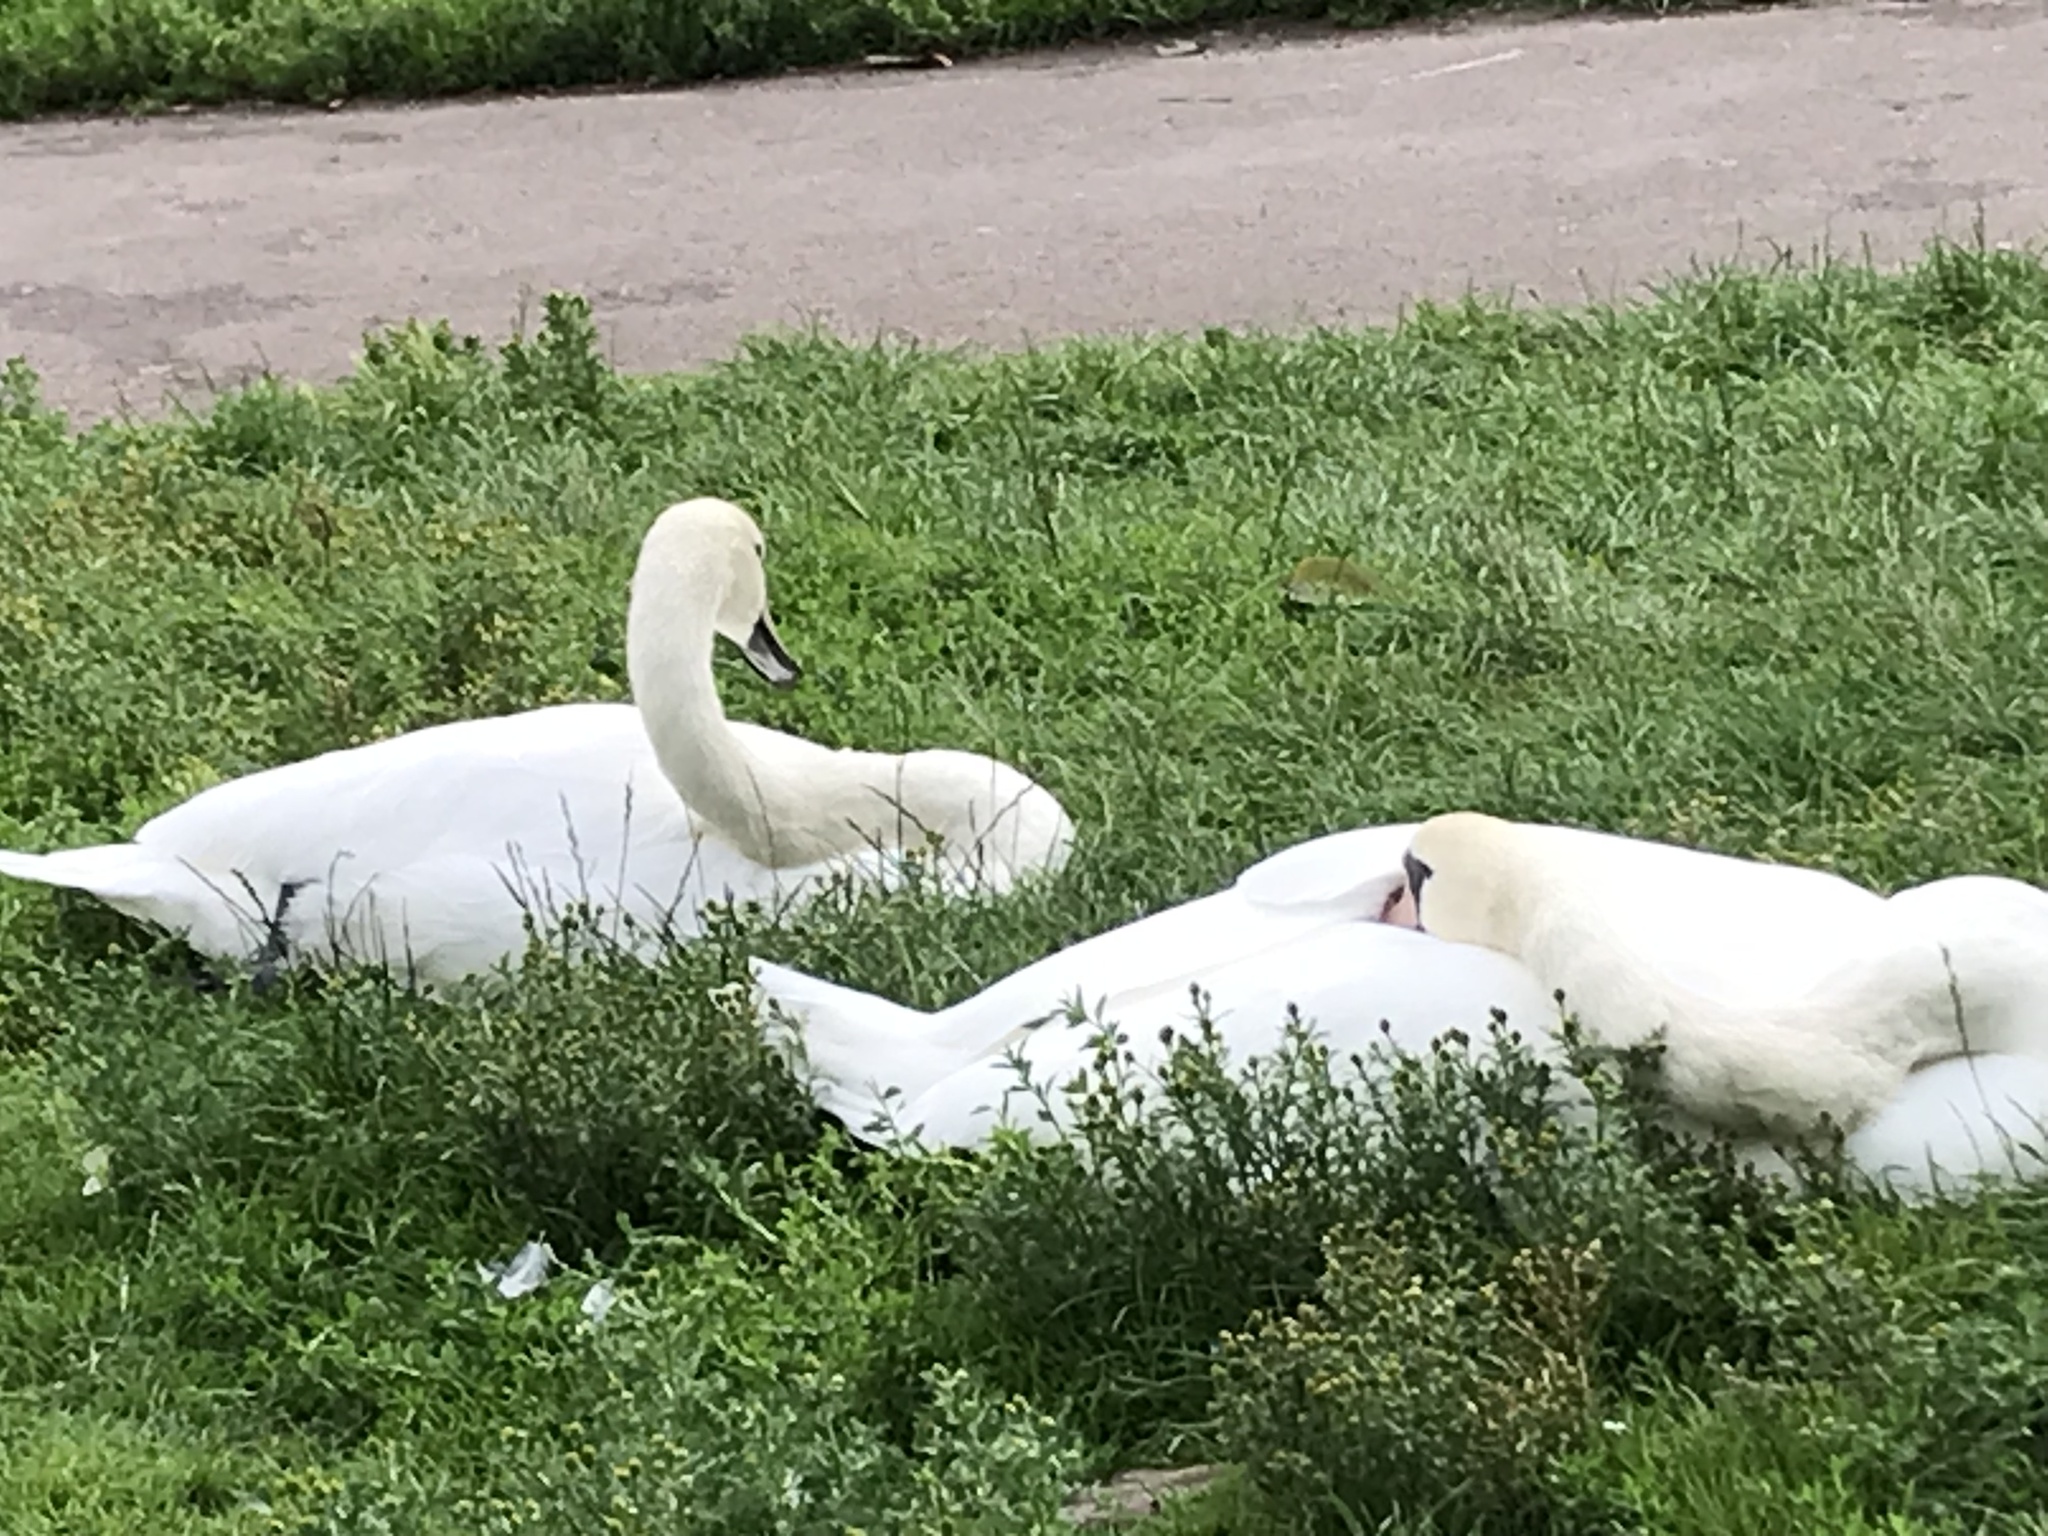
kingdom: Animalia
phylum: Chordata
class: Aves
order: Anseriformes
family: Anatidae
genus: Cygnus
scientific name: Cygnus olor
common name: Mute swan
